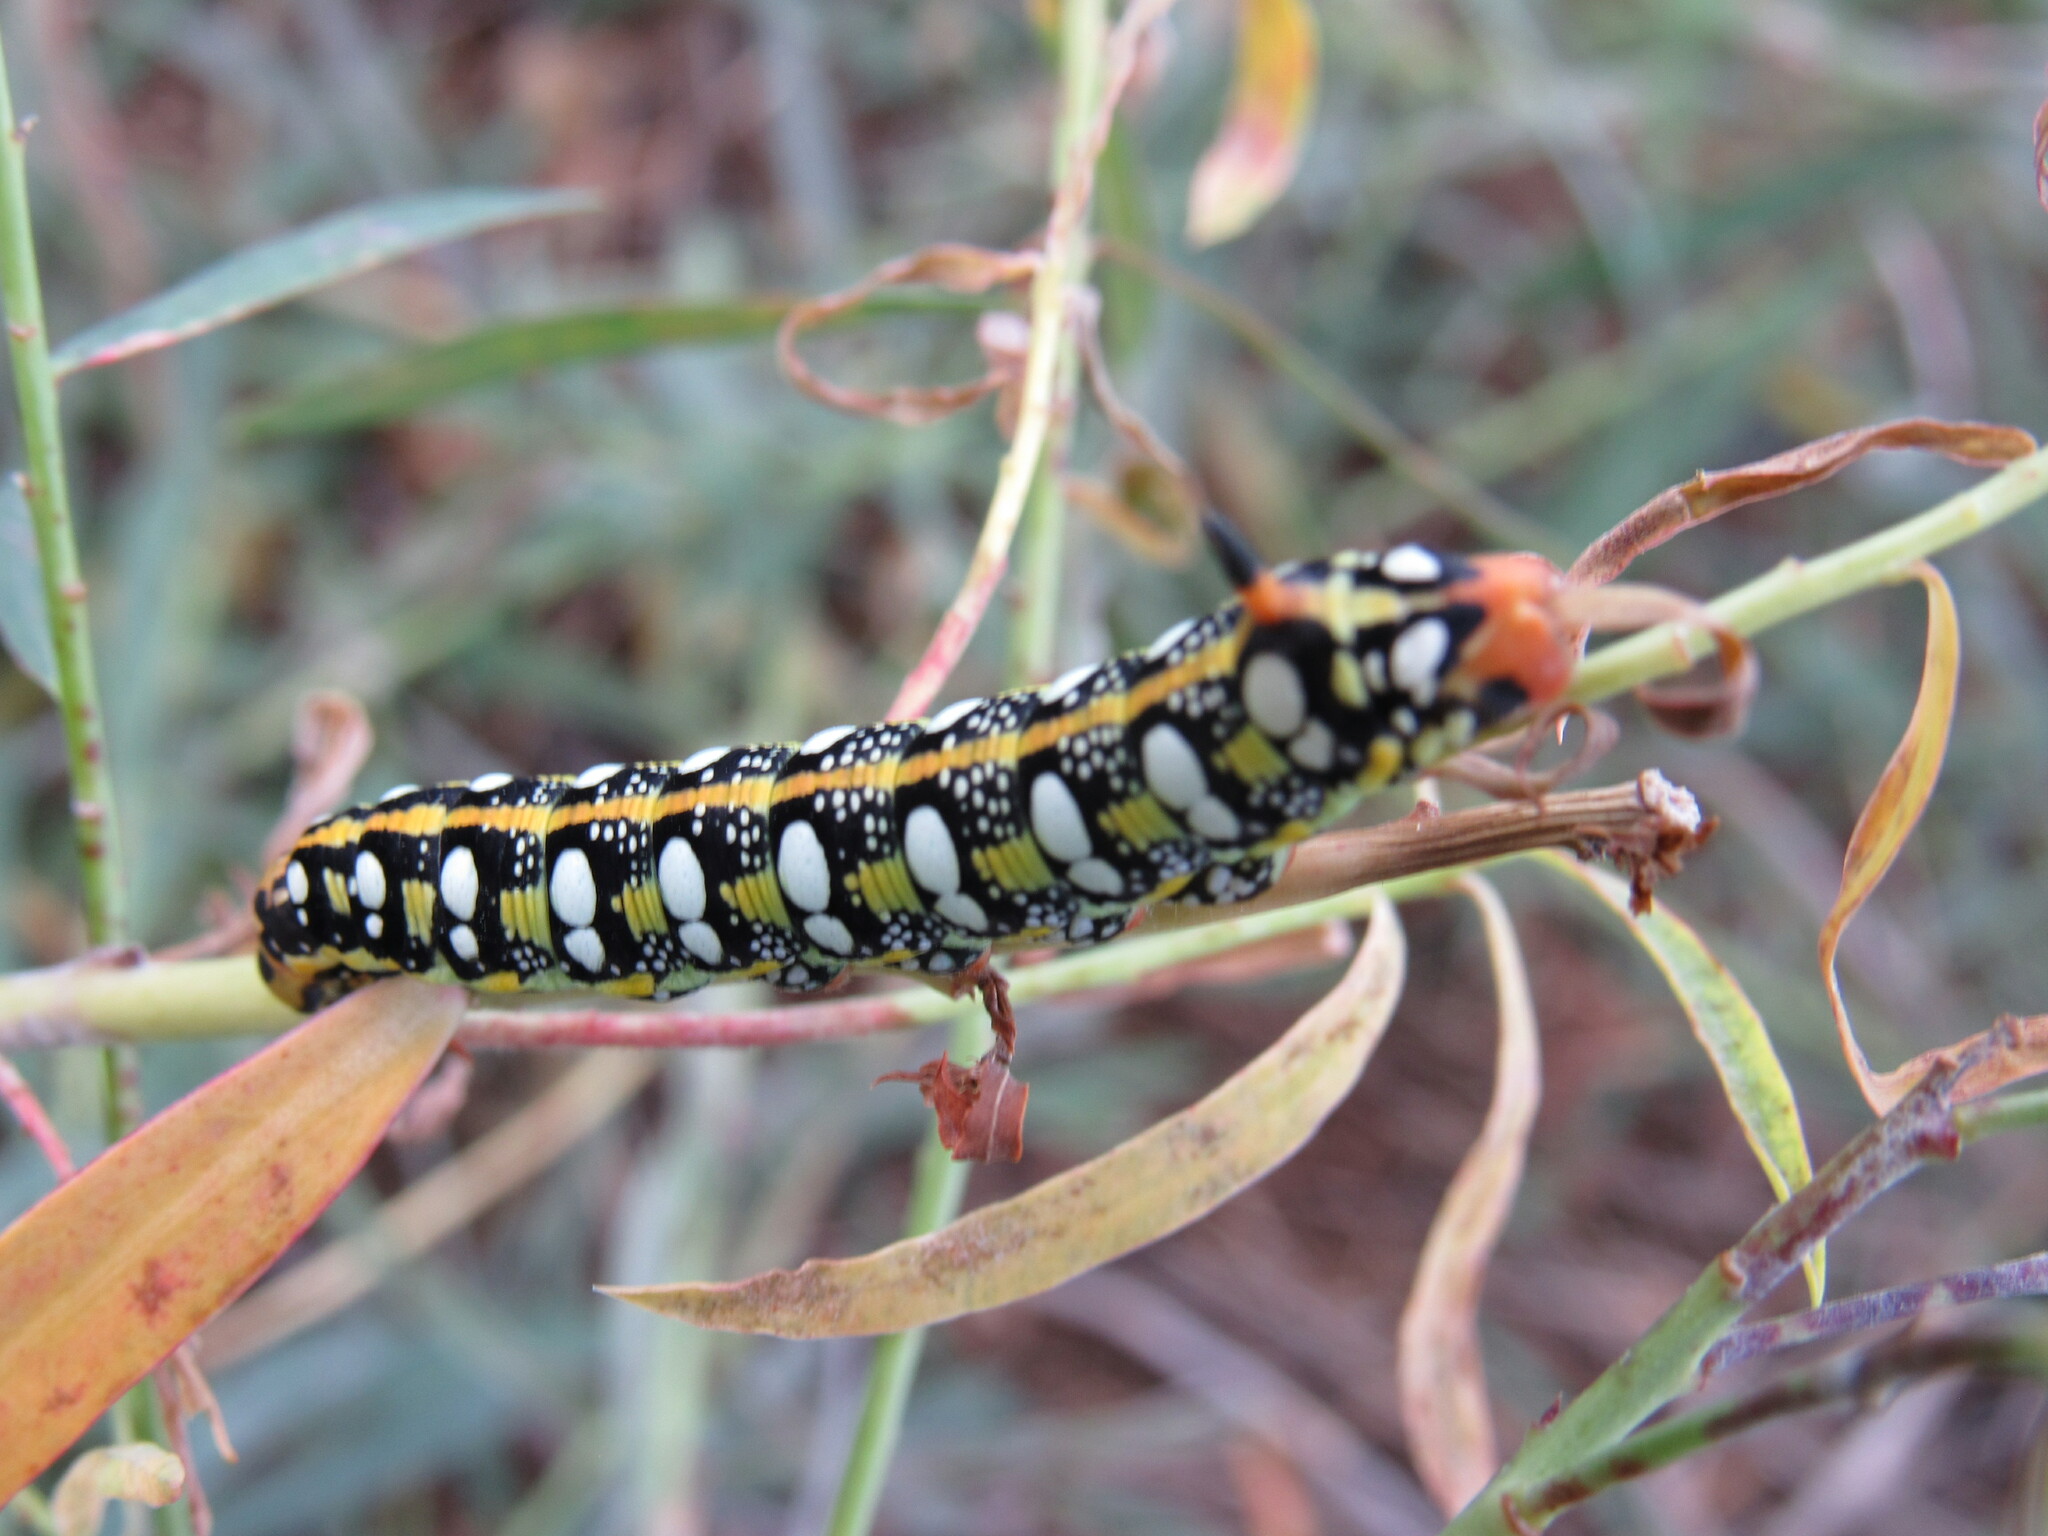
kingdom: Animalia
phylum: Arthropoda
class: Insecta
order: Lepidoptera
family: Sphingidae
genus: Hyles
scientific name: Hyles euphorbiae
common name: Spurge hawk-moth
